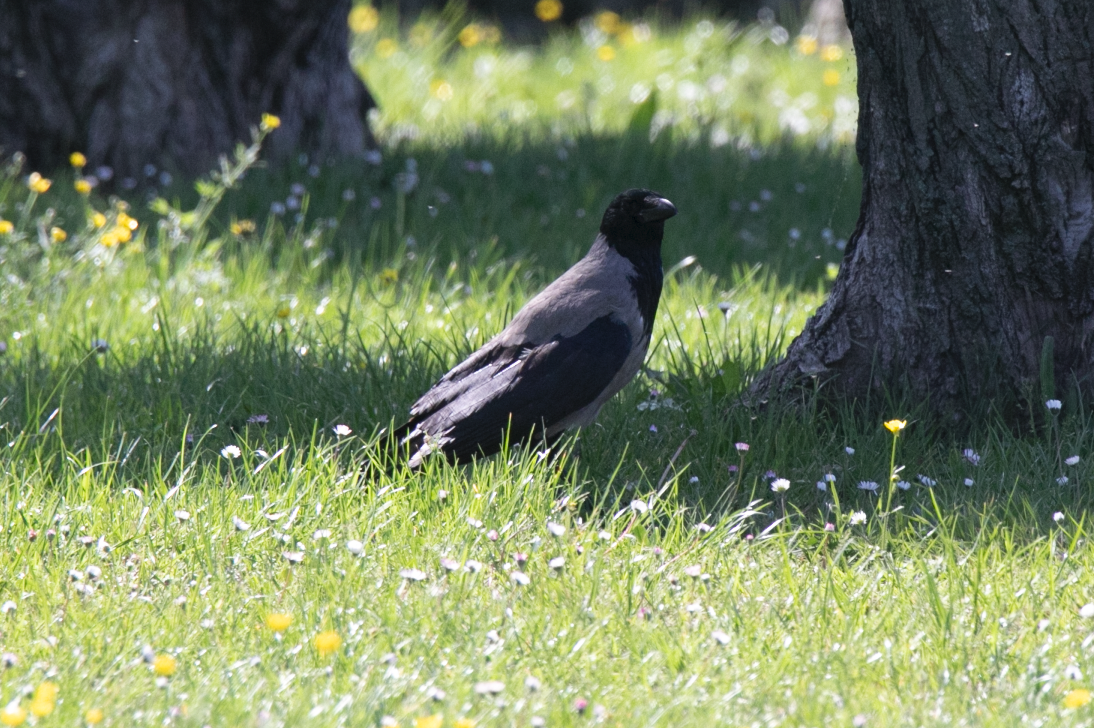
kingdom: Animalia
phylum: Chordata
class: Aves
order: Passeriformes
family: Corvidae
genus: Corvus
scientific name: Corvus cornix
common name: Hooded crow
